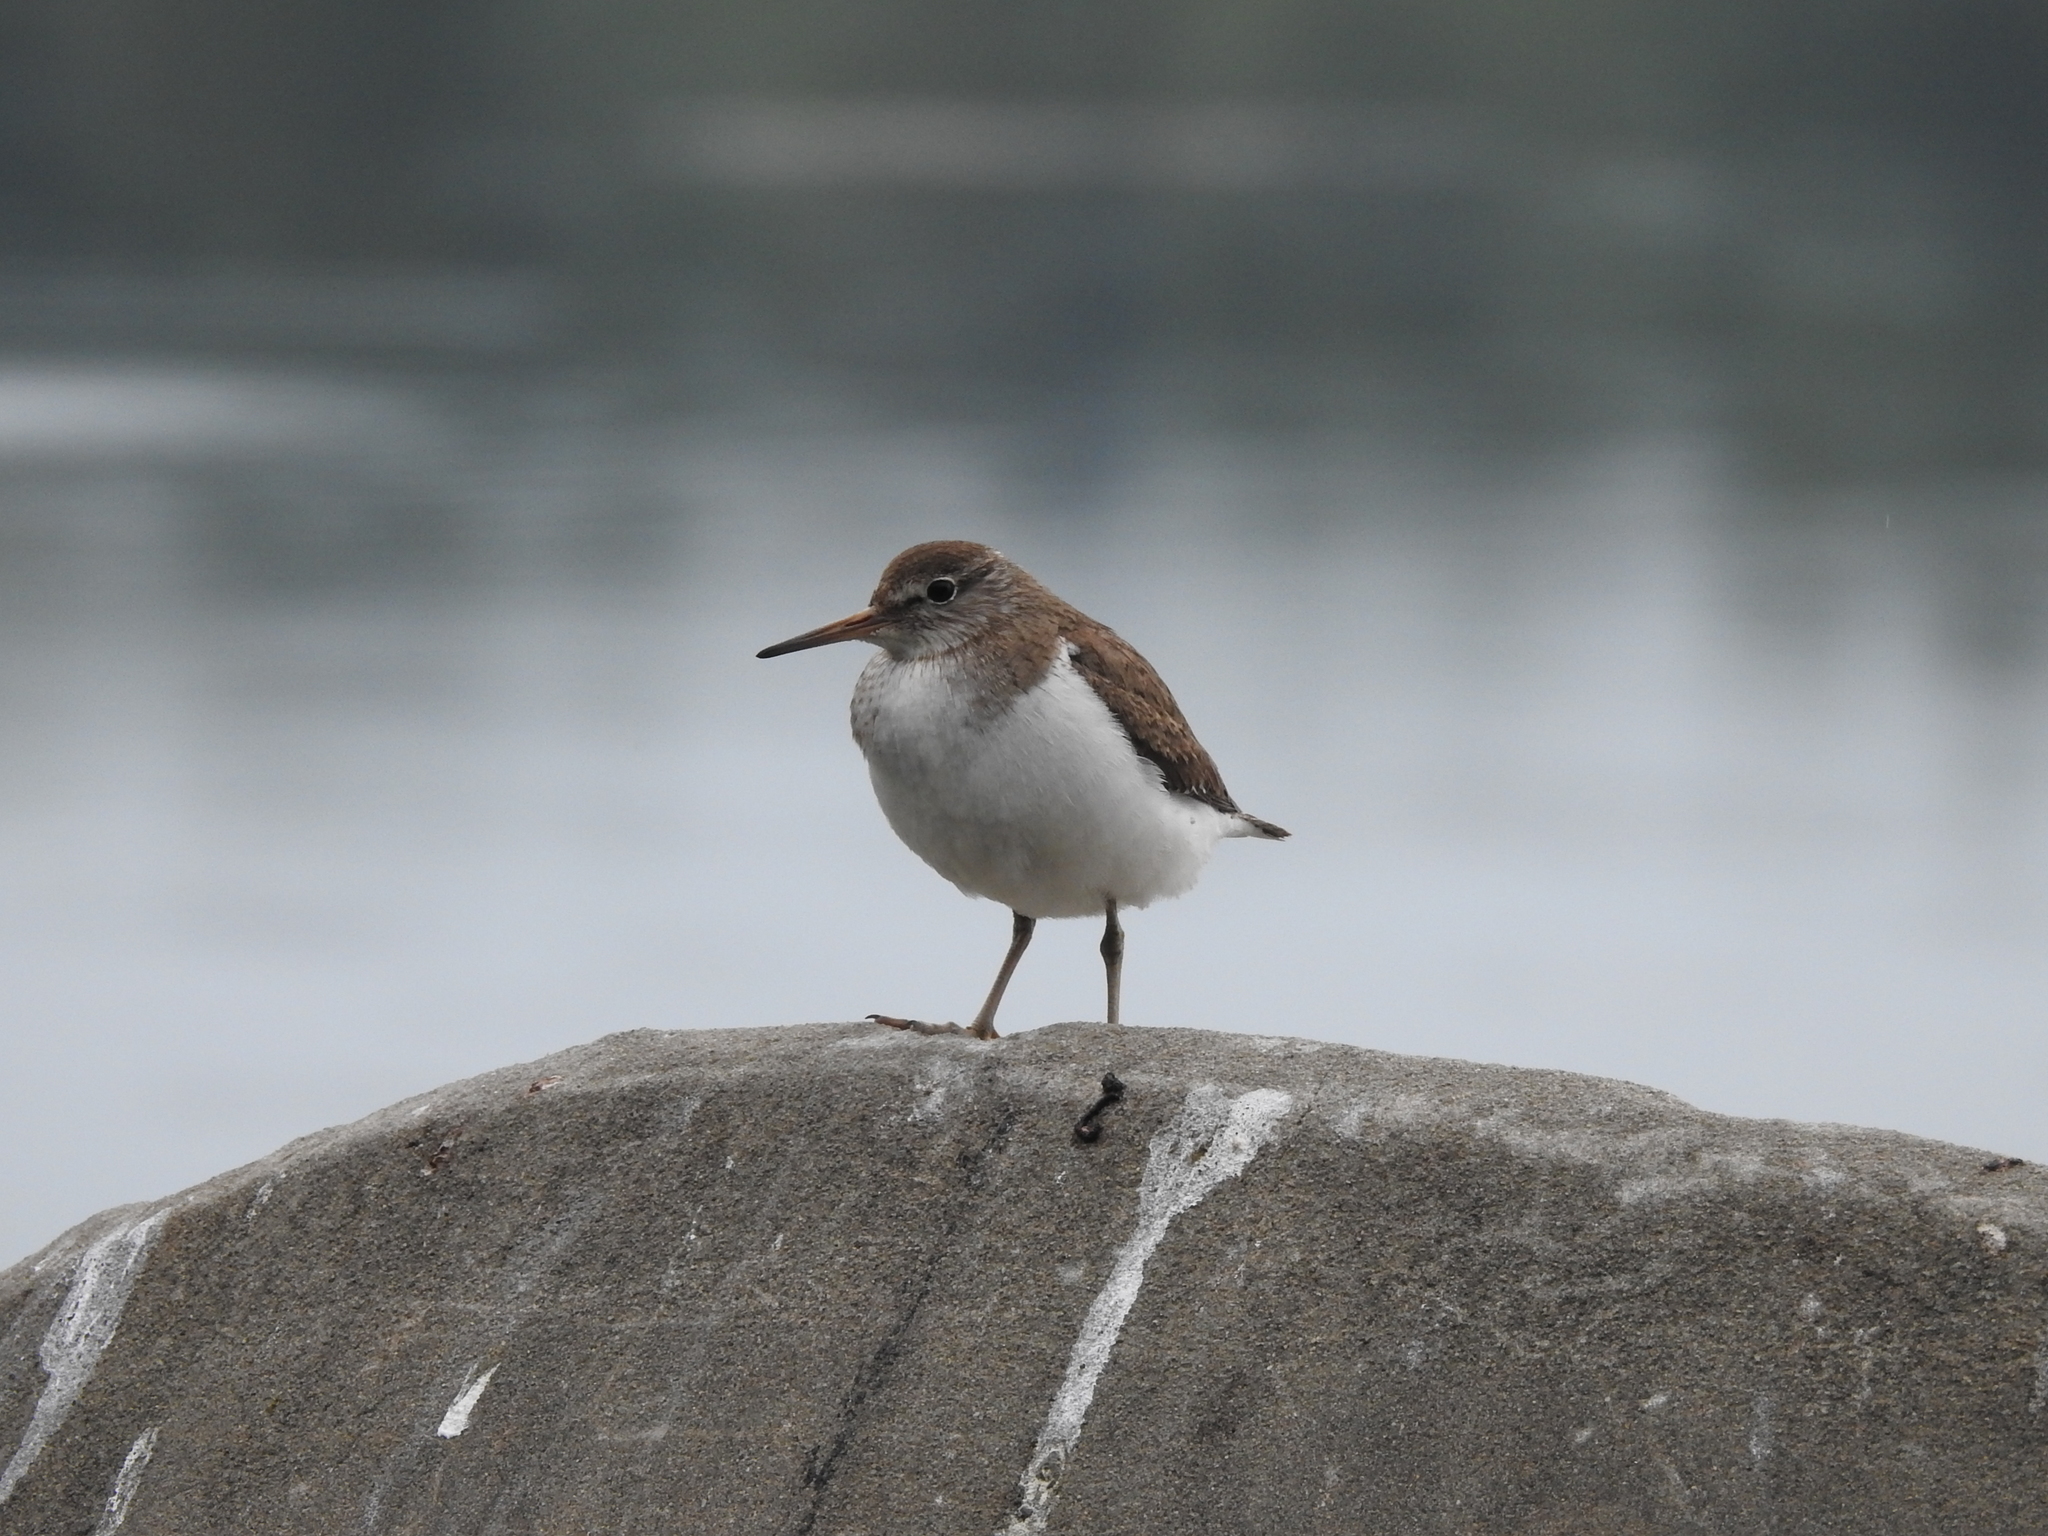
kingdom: Animalia
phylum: Chordata
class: Aves
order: Charadriiformes
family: Scolopacidae
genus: Actitis
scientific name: Actitis hypoleucos
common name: Common sandpiper
